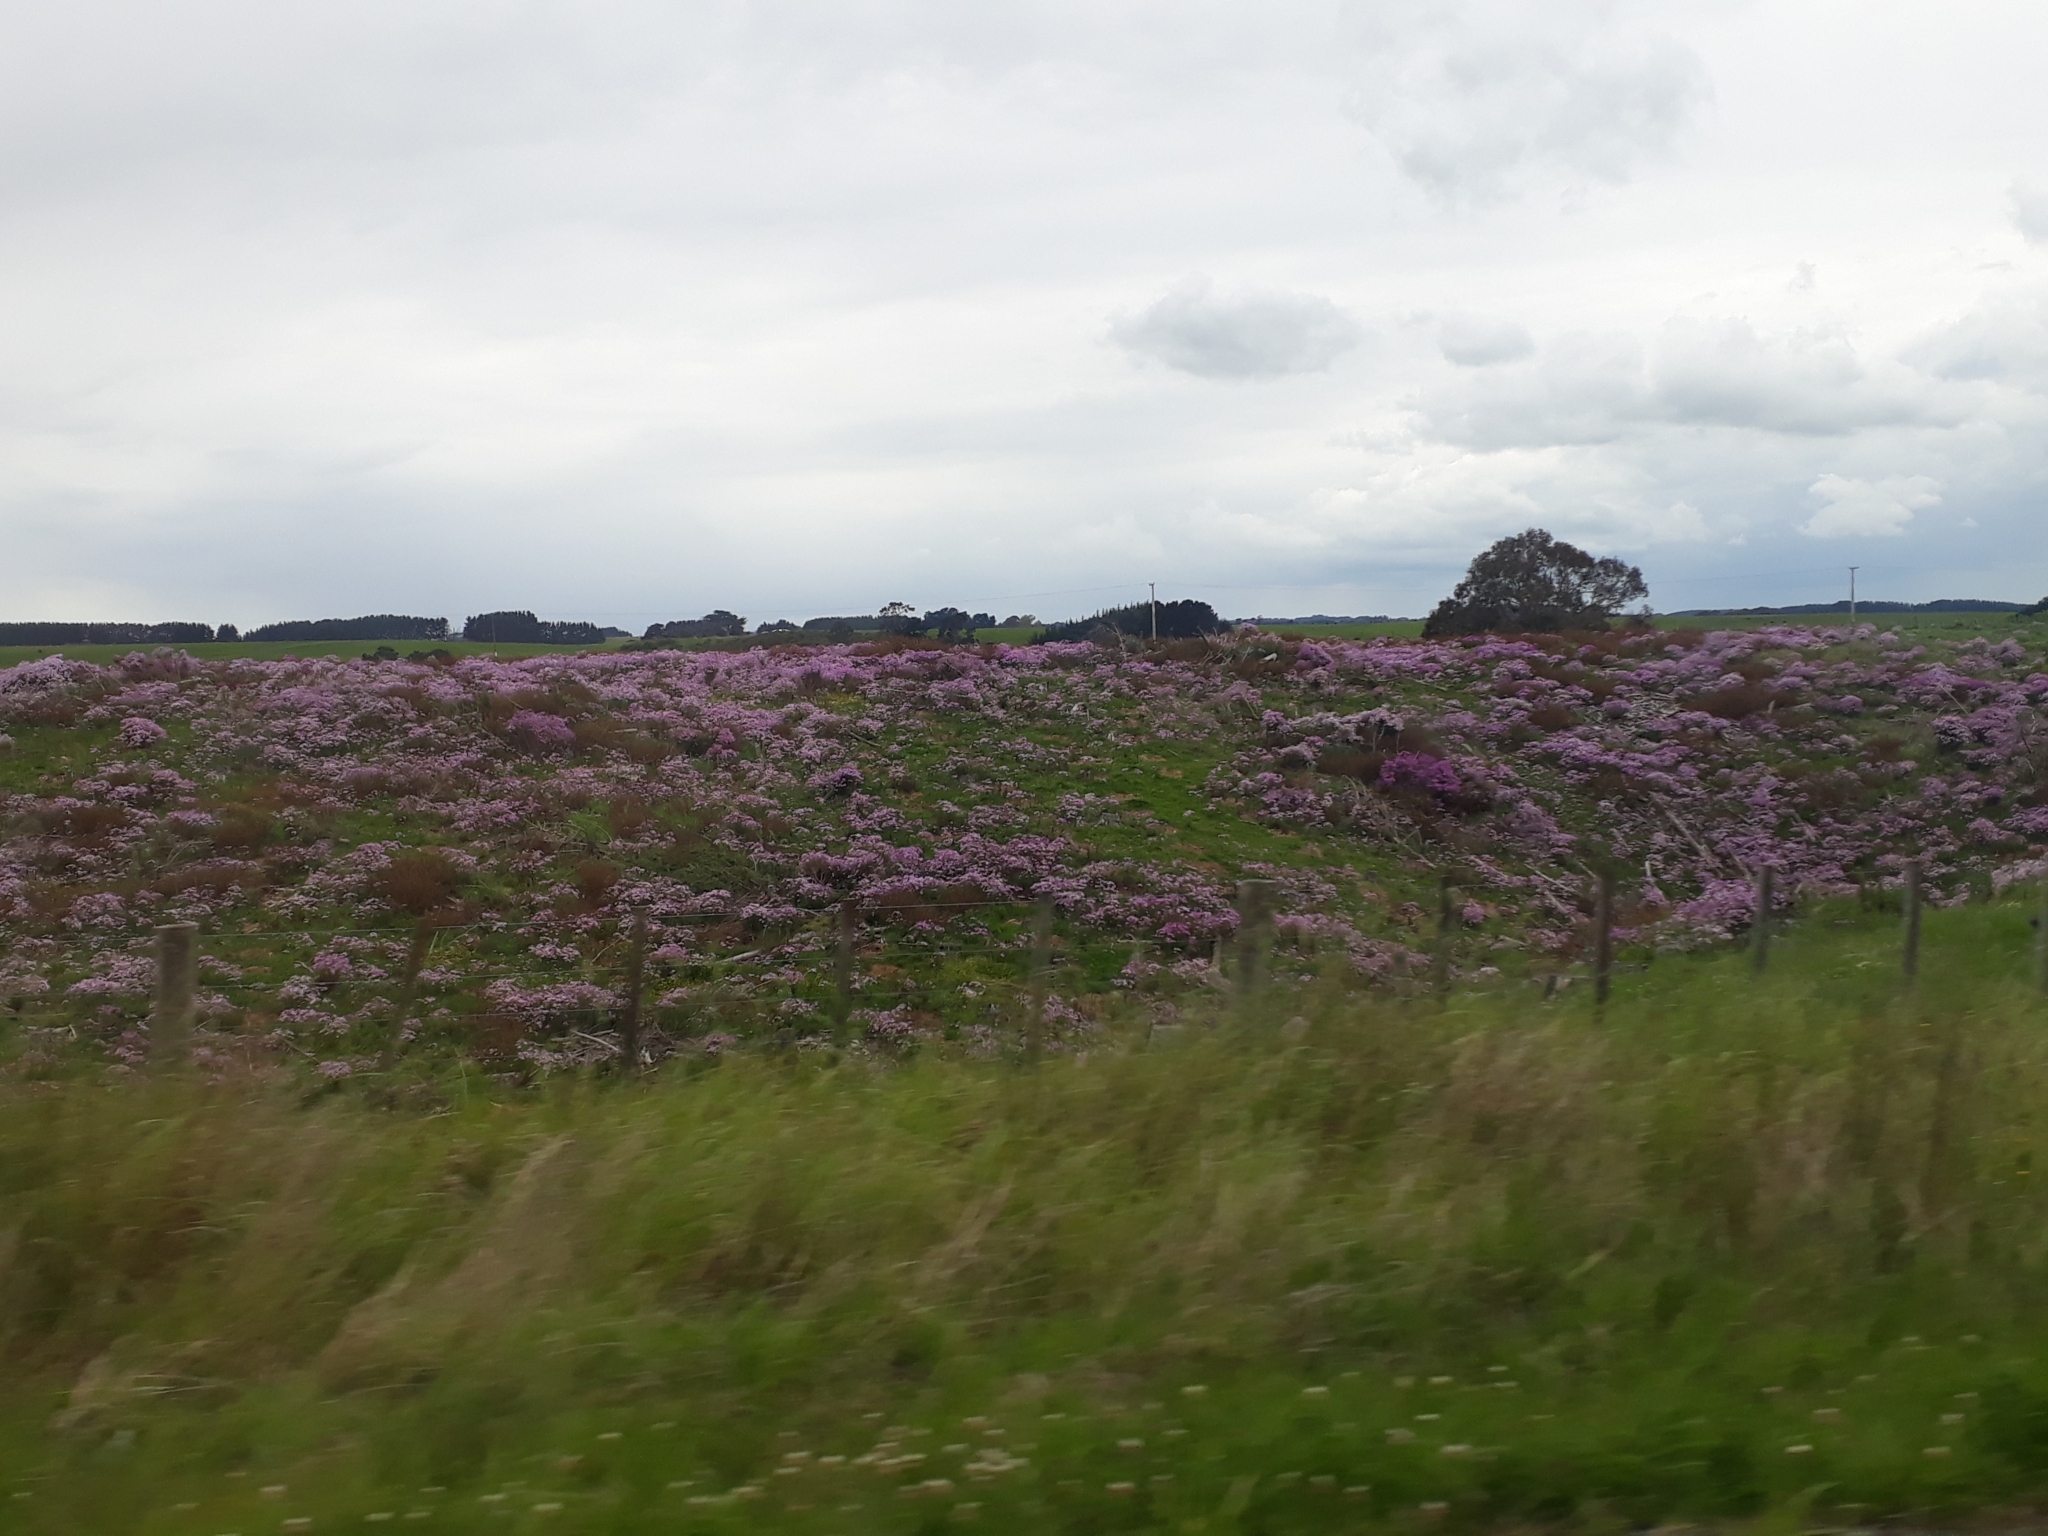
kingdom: Plantae
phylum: Tracheophyta
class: Magnoliopsida
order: Asterales
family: Asteraceae
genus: Senecio
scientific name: Senecio glastifolius
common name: Woad-leaved ragwort
